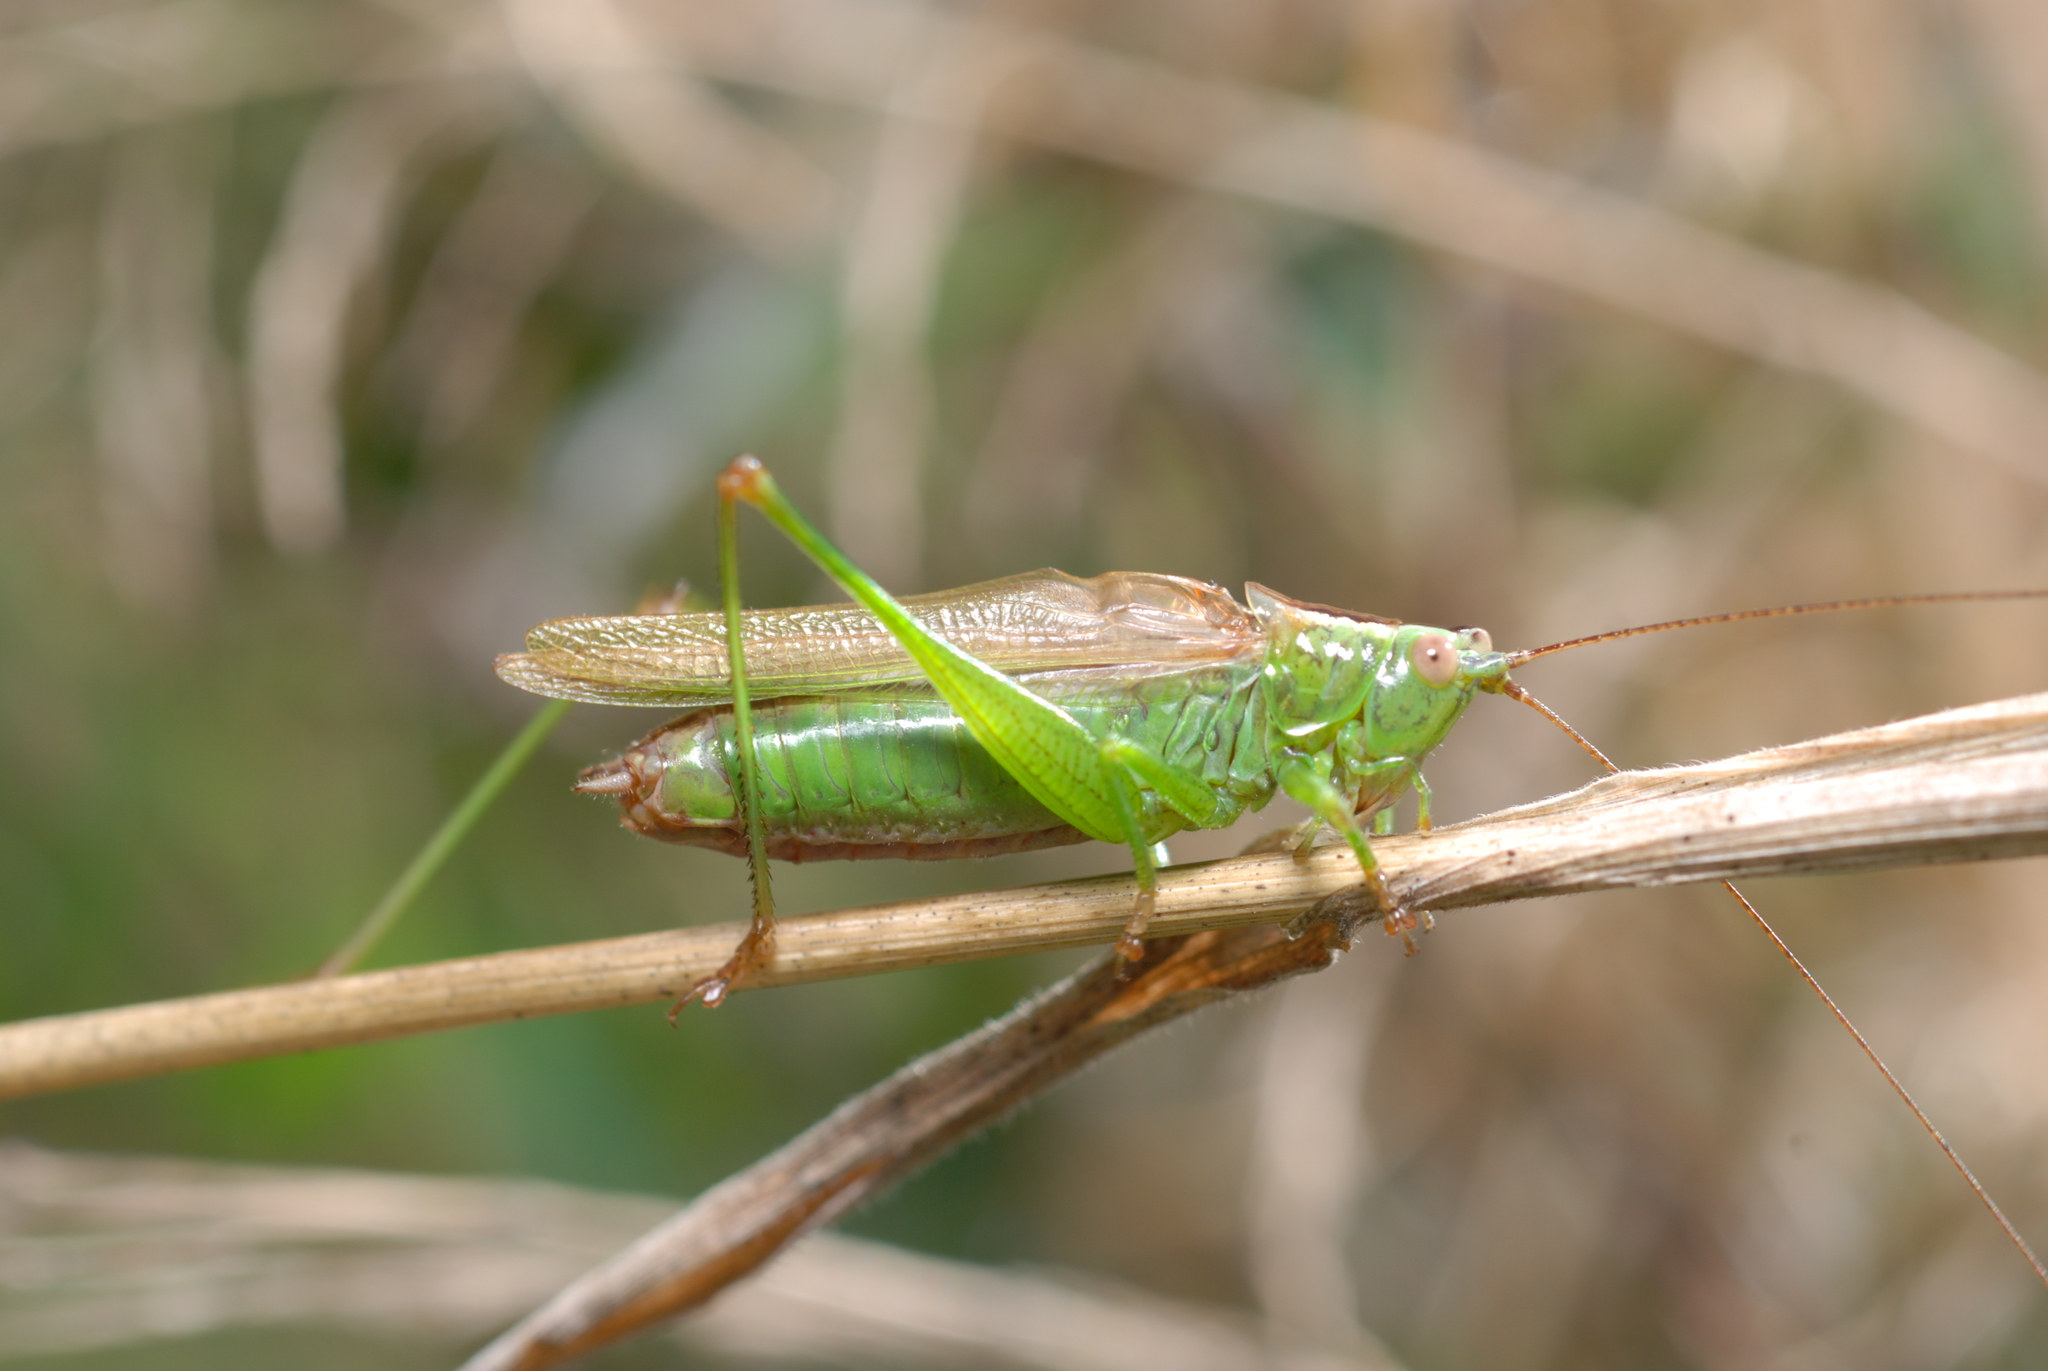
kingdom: Animalia
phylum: Arthropoda
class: Insecta
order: Orthoptera
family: Tettigoniidae
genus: Conocephalus
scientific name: Conocephalus fuscus
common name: Long-winged conehead
